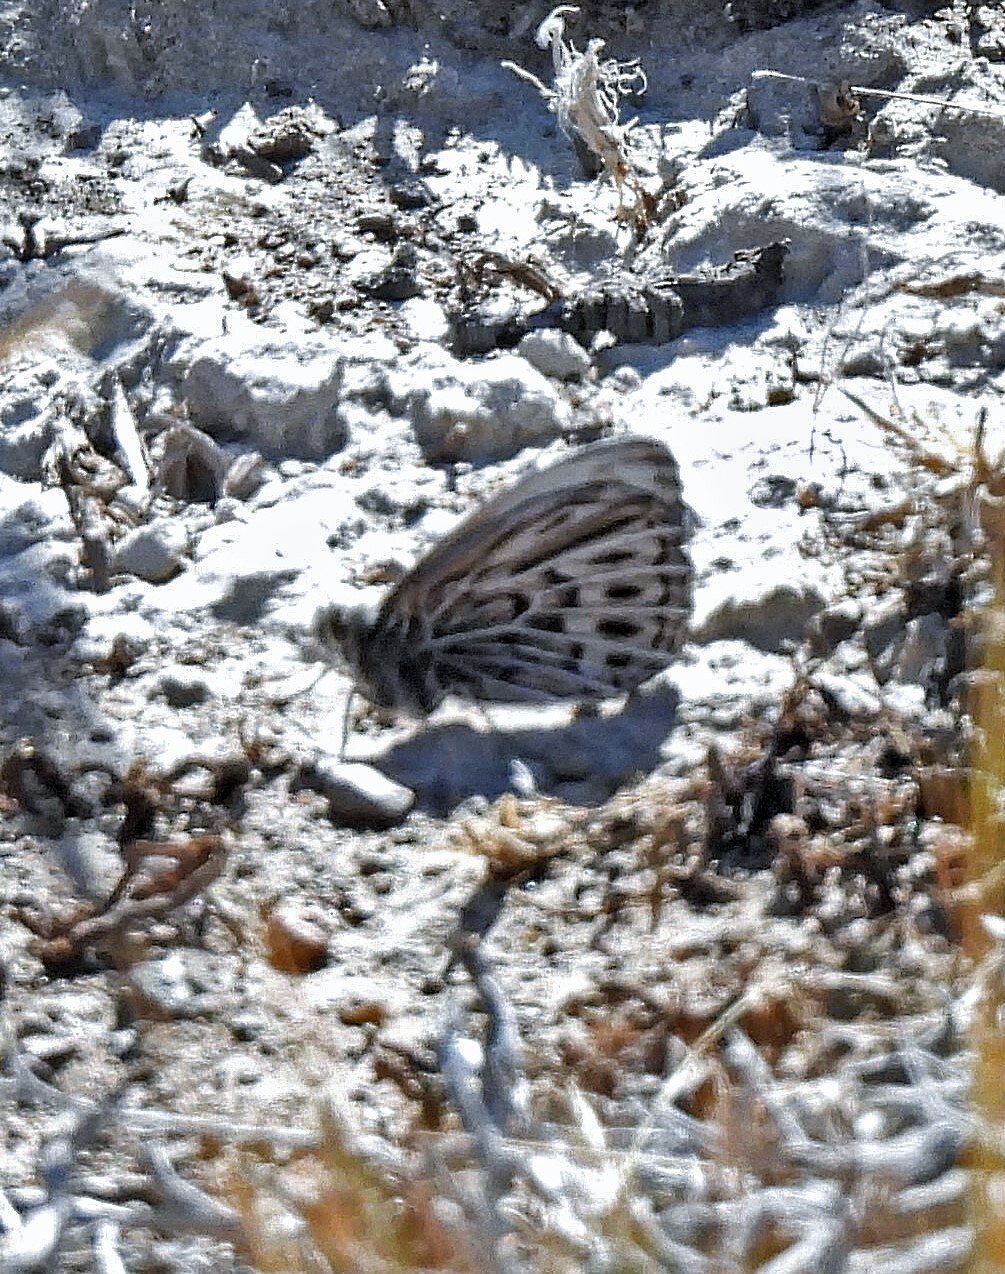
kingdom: Animalia
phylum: Arthropoda
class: Insecta
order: Lepidoptera
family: Nymphalidae
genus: Argyrophorus
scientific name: Argyrophorus argenteus
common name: Silver satyr
